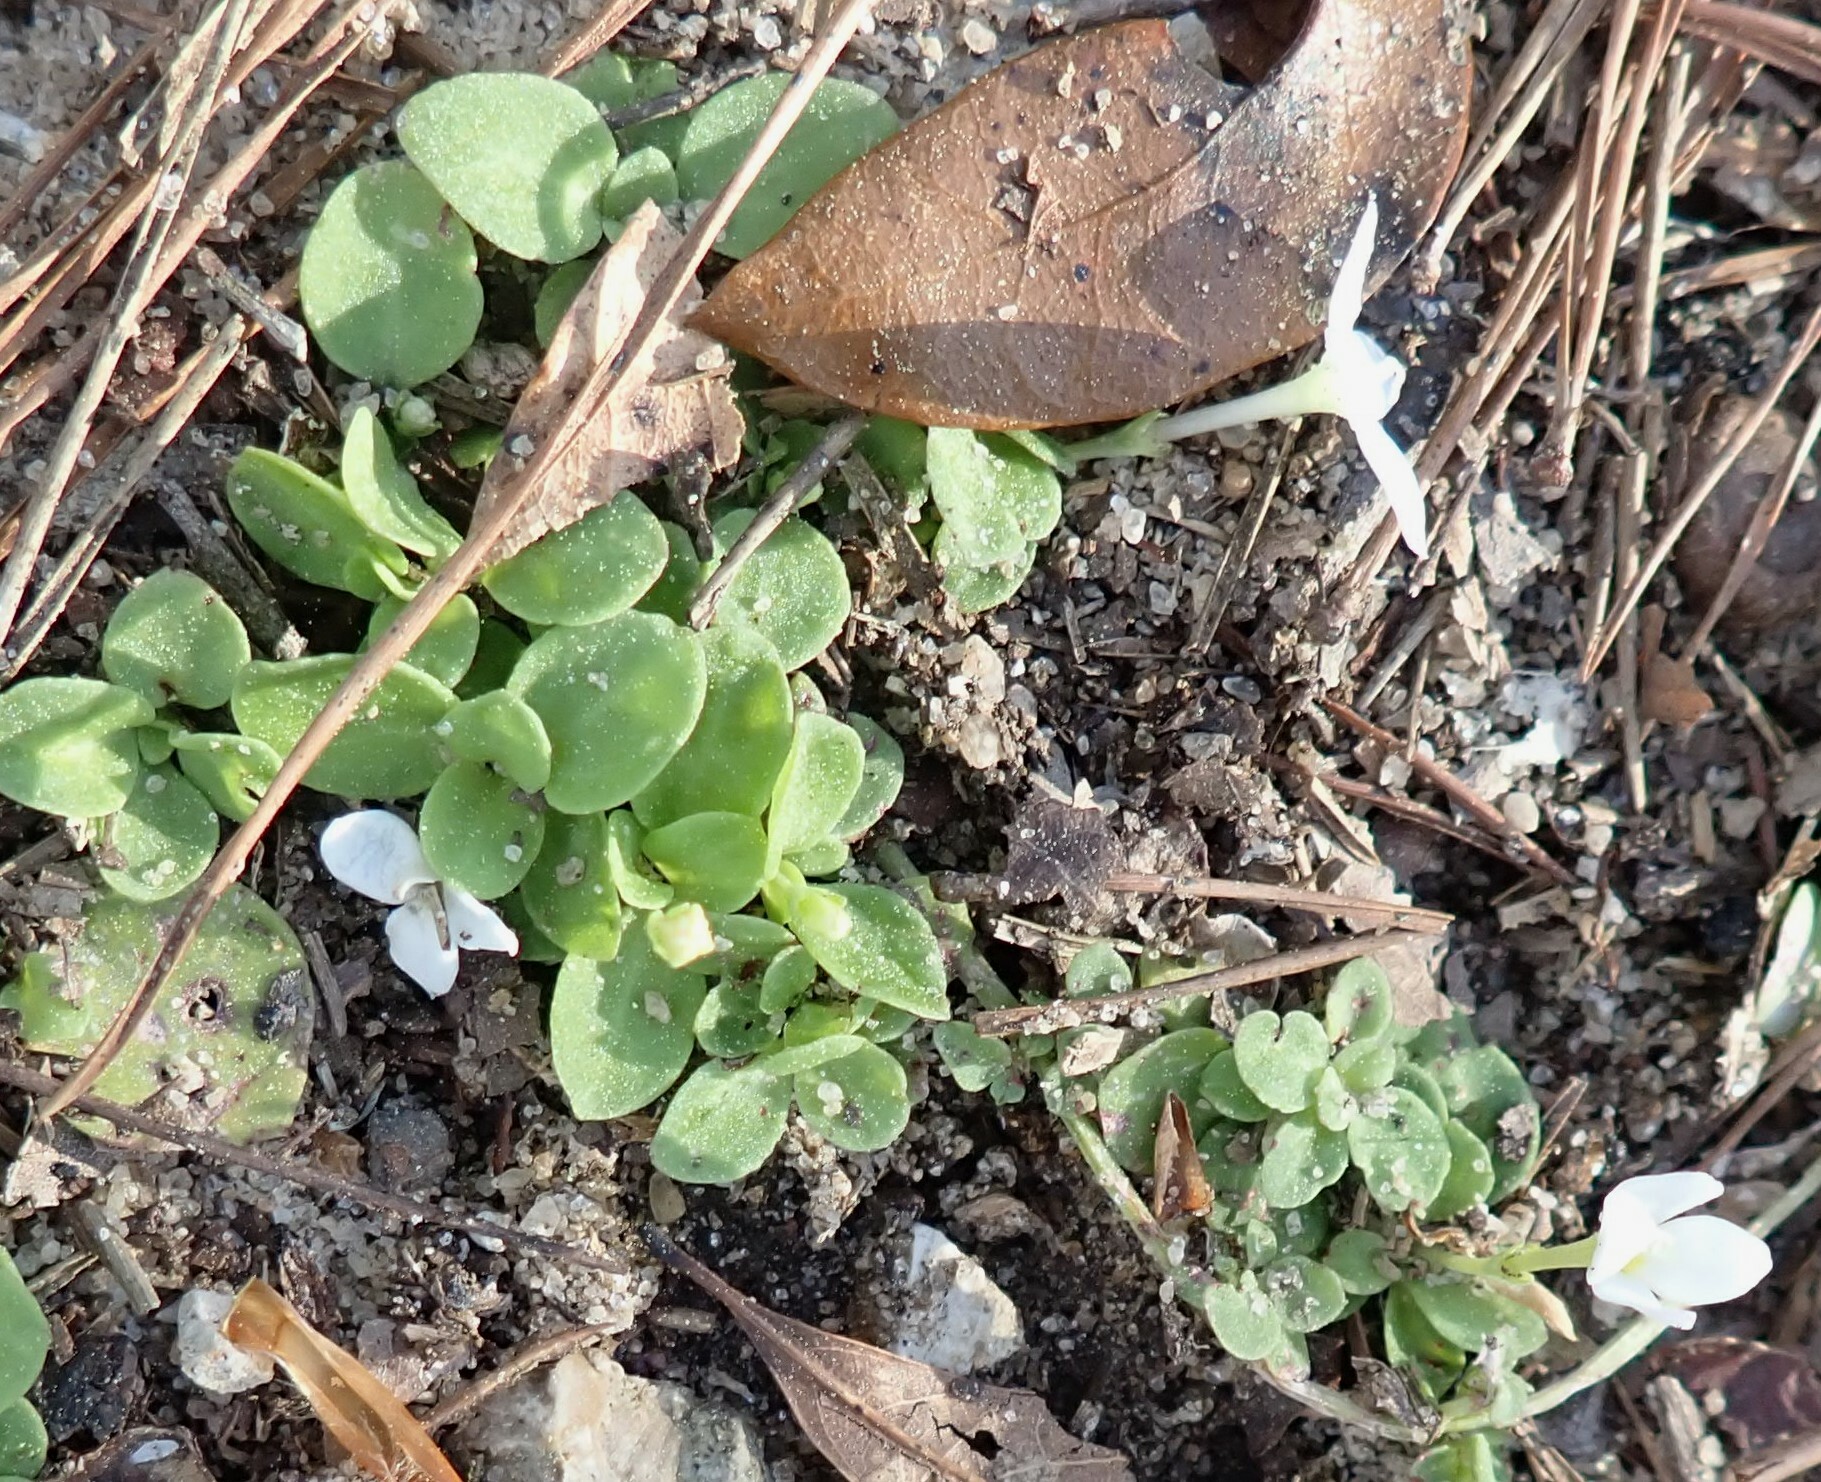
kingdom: Plantae
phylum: Tracheophyta
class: Magnoliopsida
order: Gentianales
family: Rubiaceae
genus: Houstonia
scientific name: Houstonia procumbens
